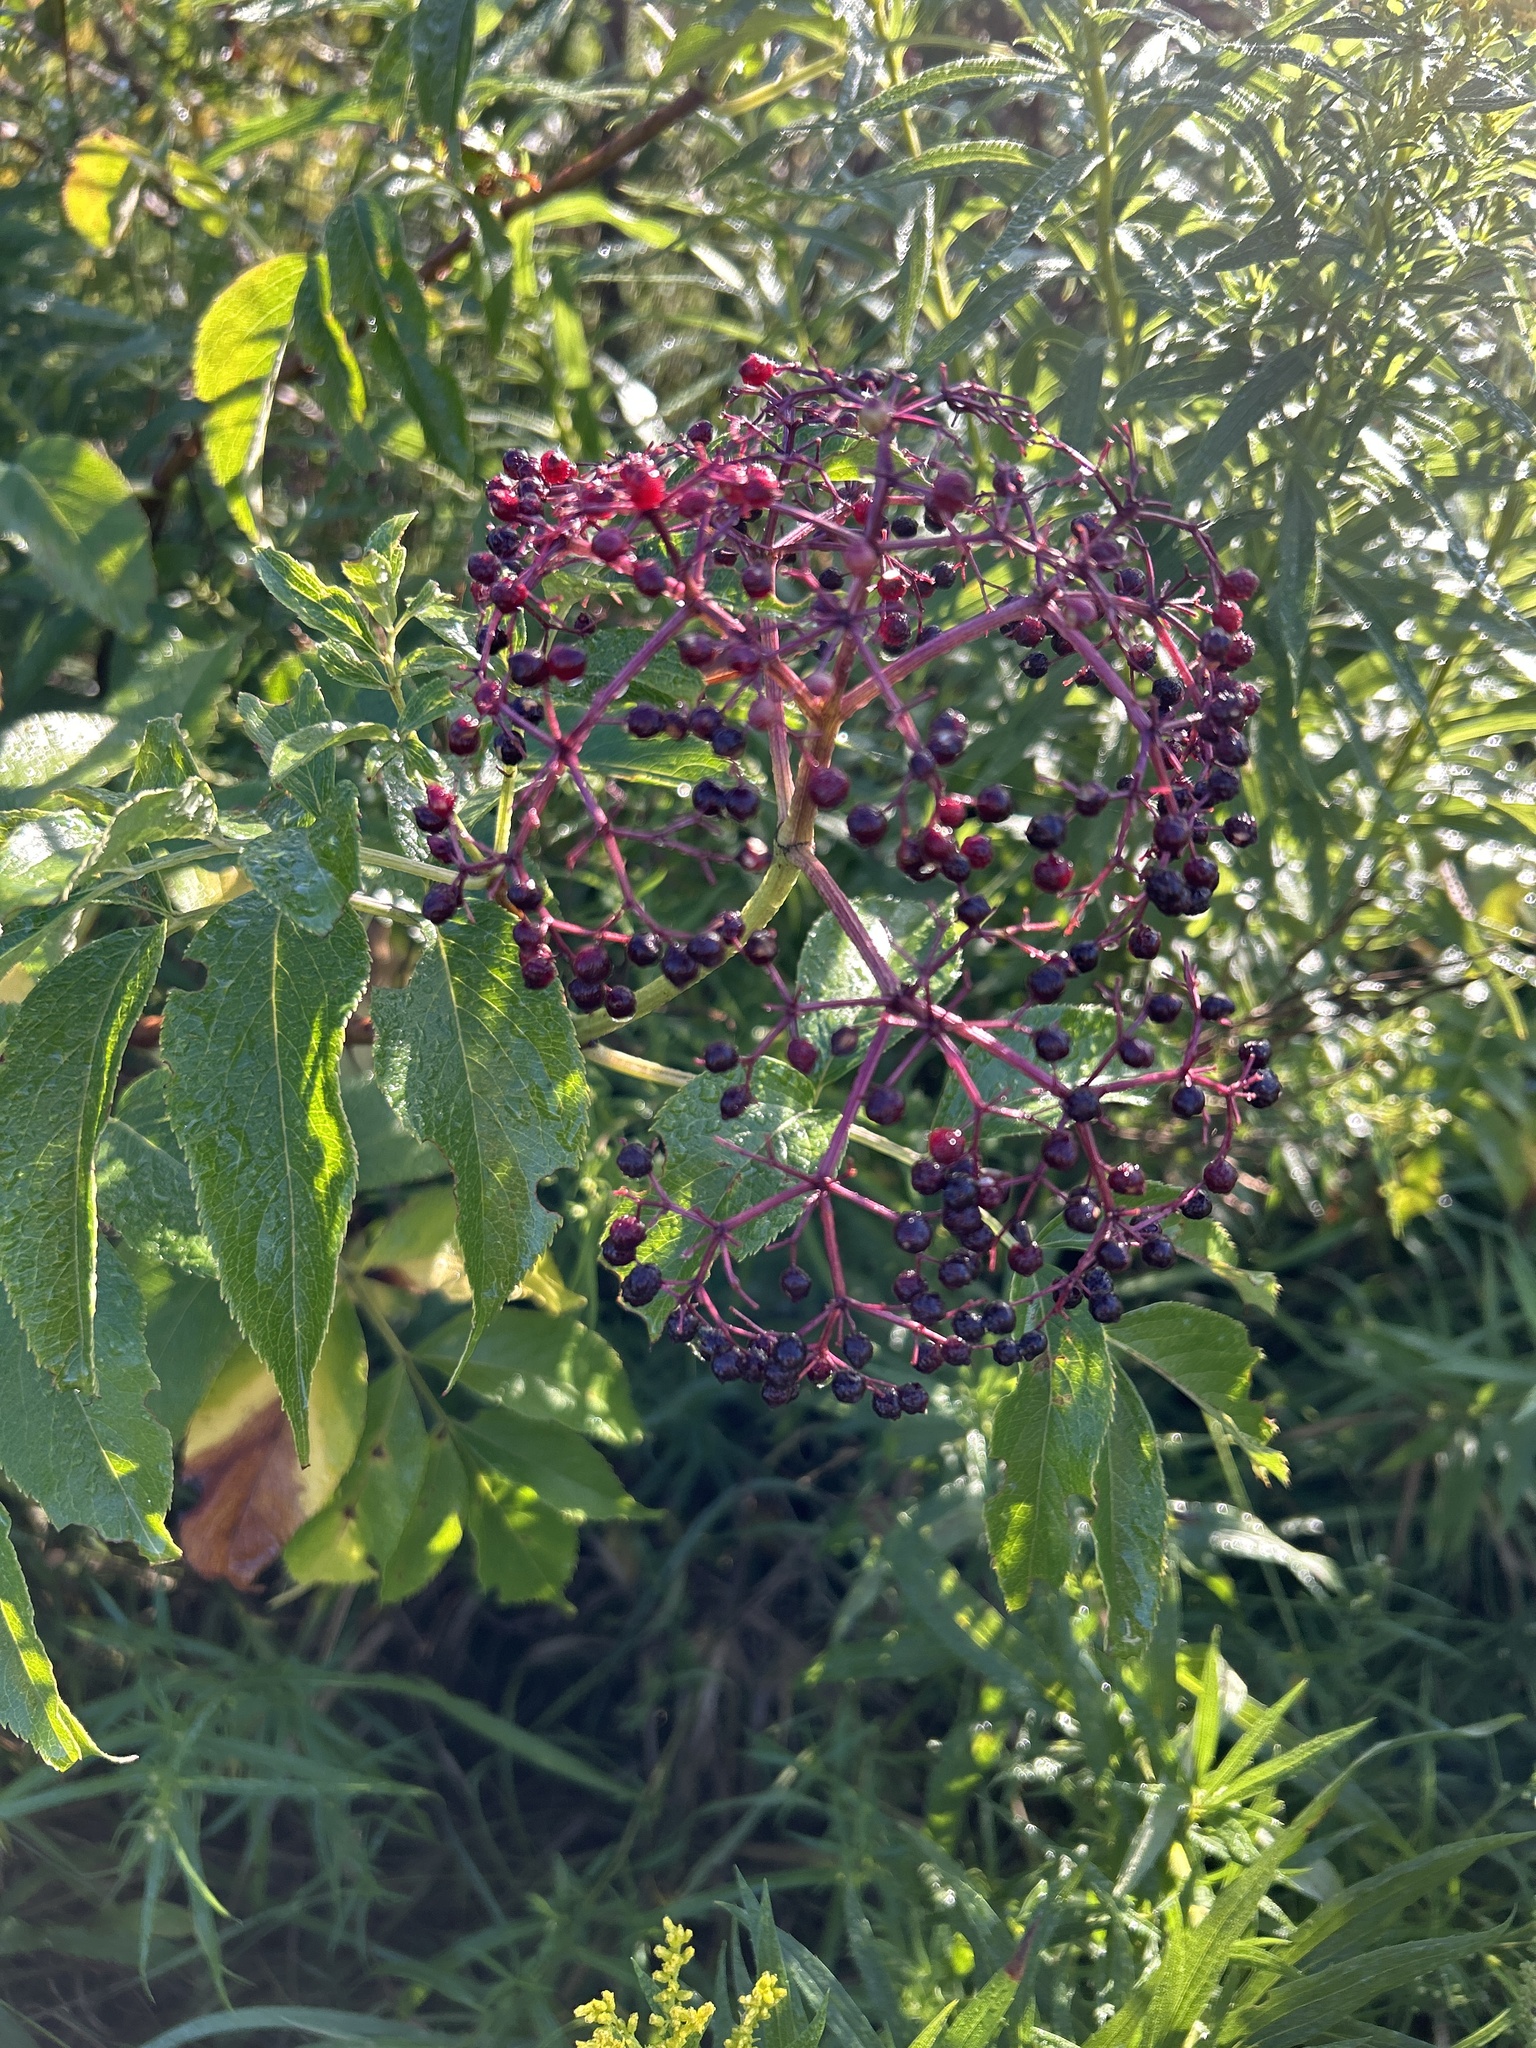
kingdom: Plantae
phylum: Tracheophyta
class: Magnoliopsida
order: Dipsacales
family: Viburnaceae
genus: Sambucus
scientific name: Sambucus canadensis
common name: American elder
